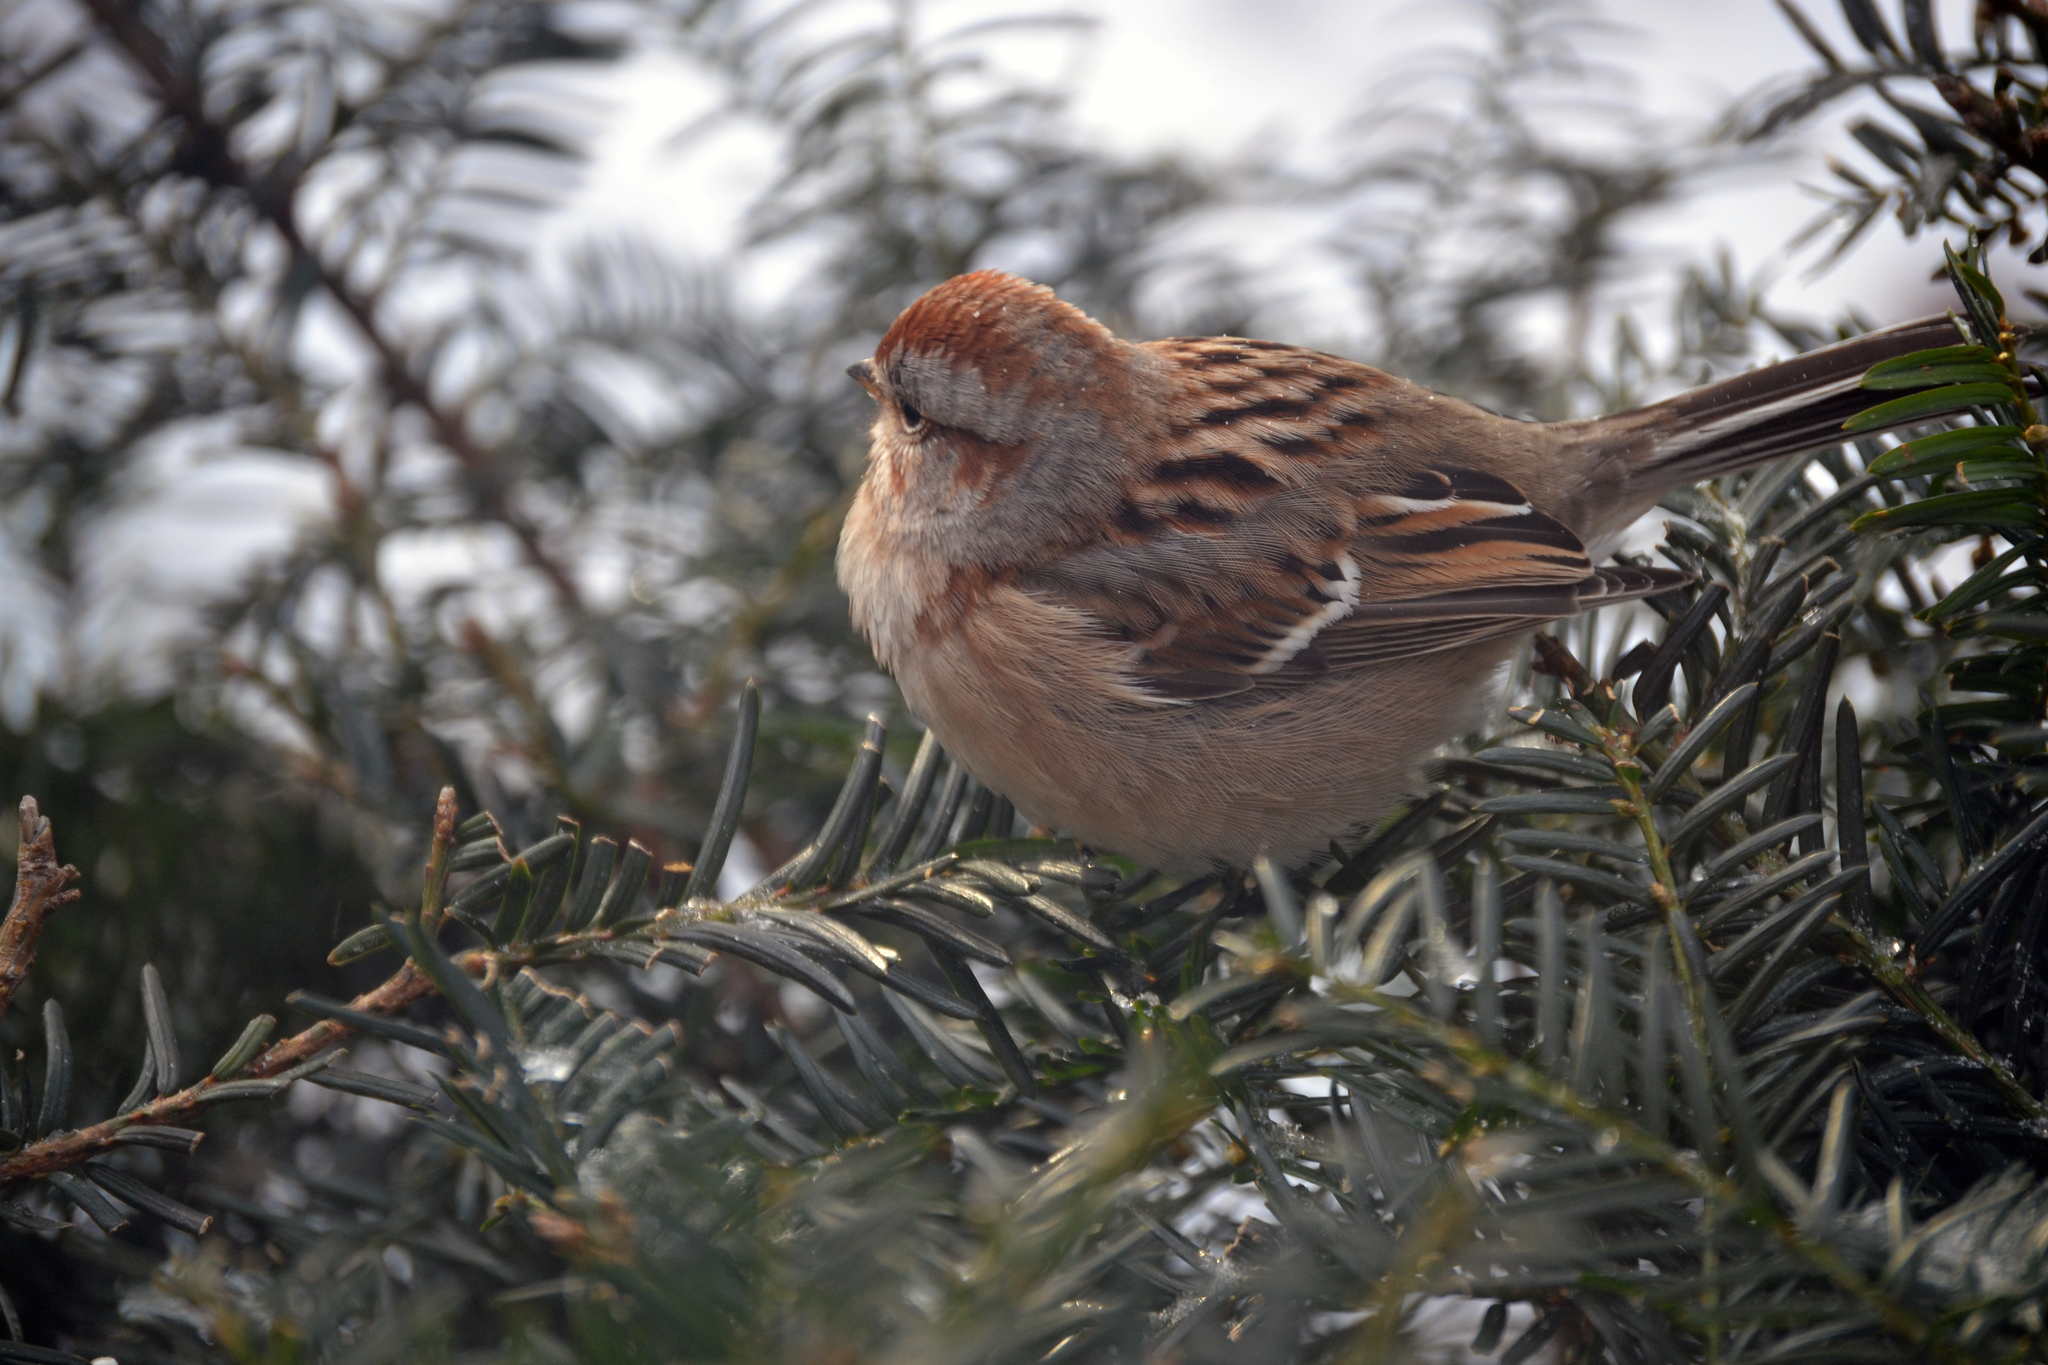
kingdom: Animalia
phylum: Chordata
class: Aves
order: Passeriformes
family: Passerellidae
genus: Spizelloides
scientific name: Spizelloides arborea
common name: American tree sparrow
